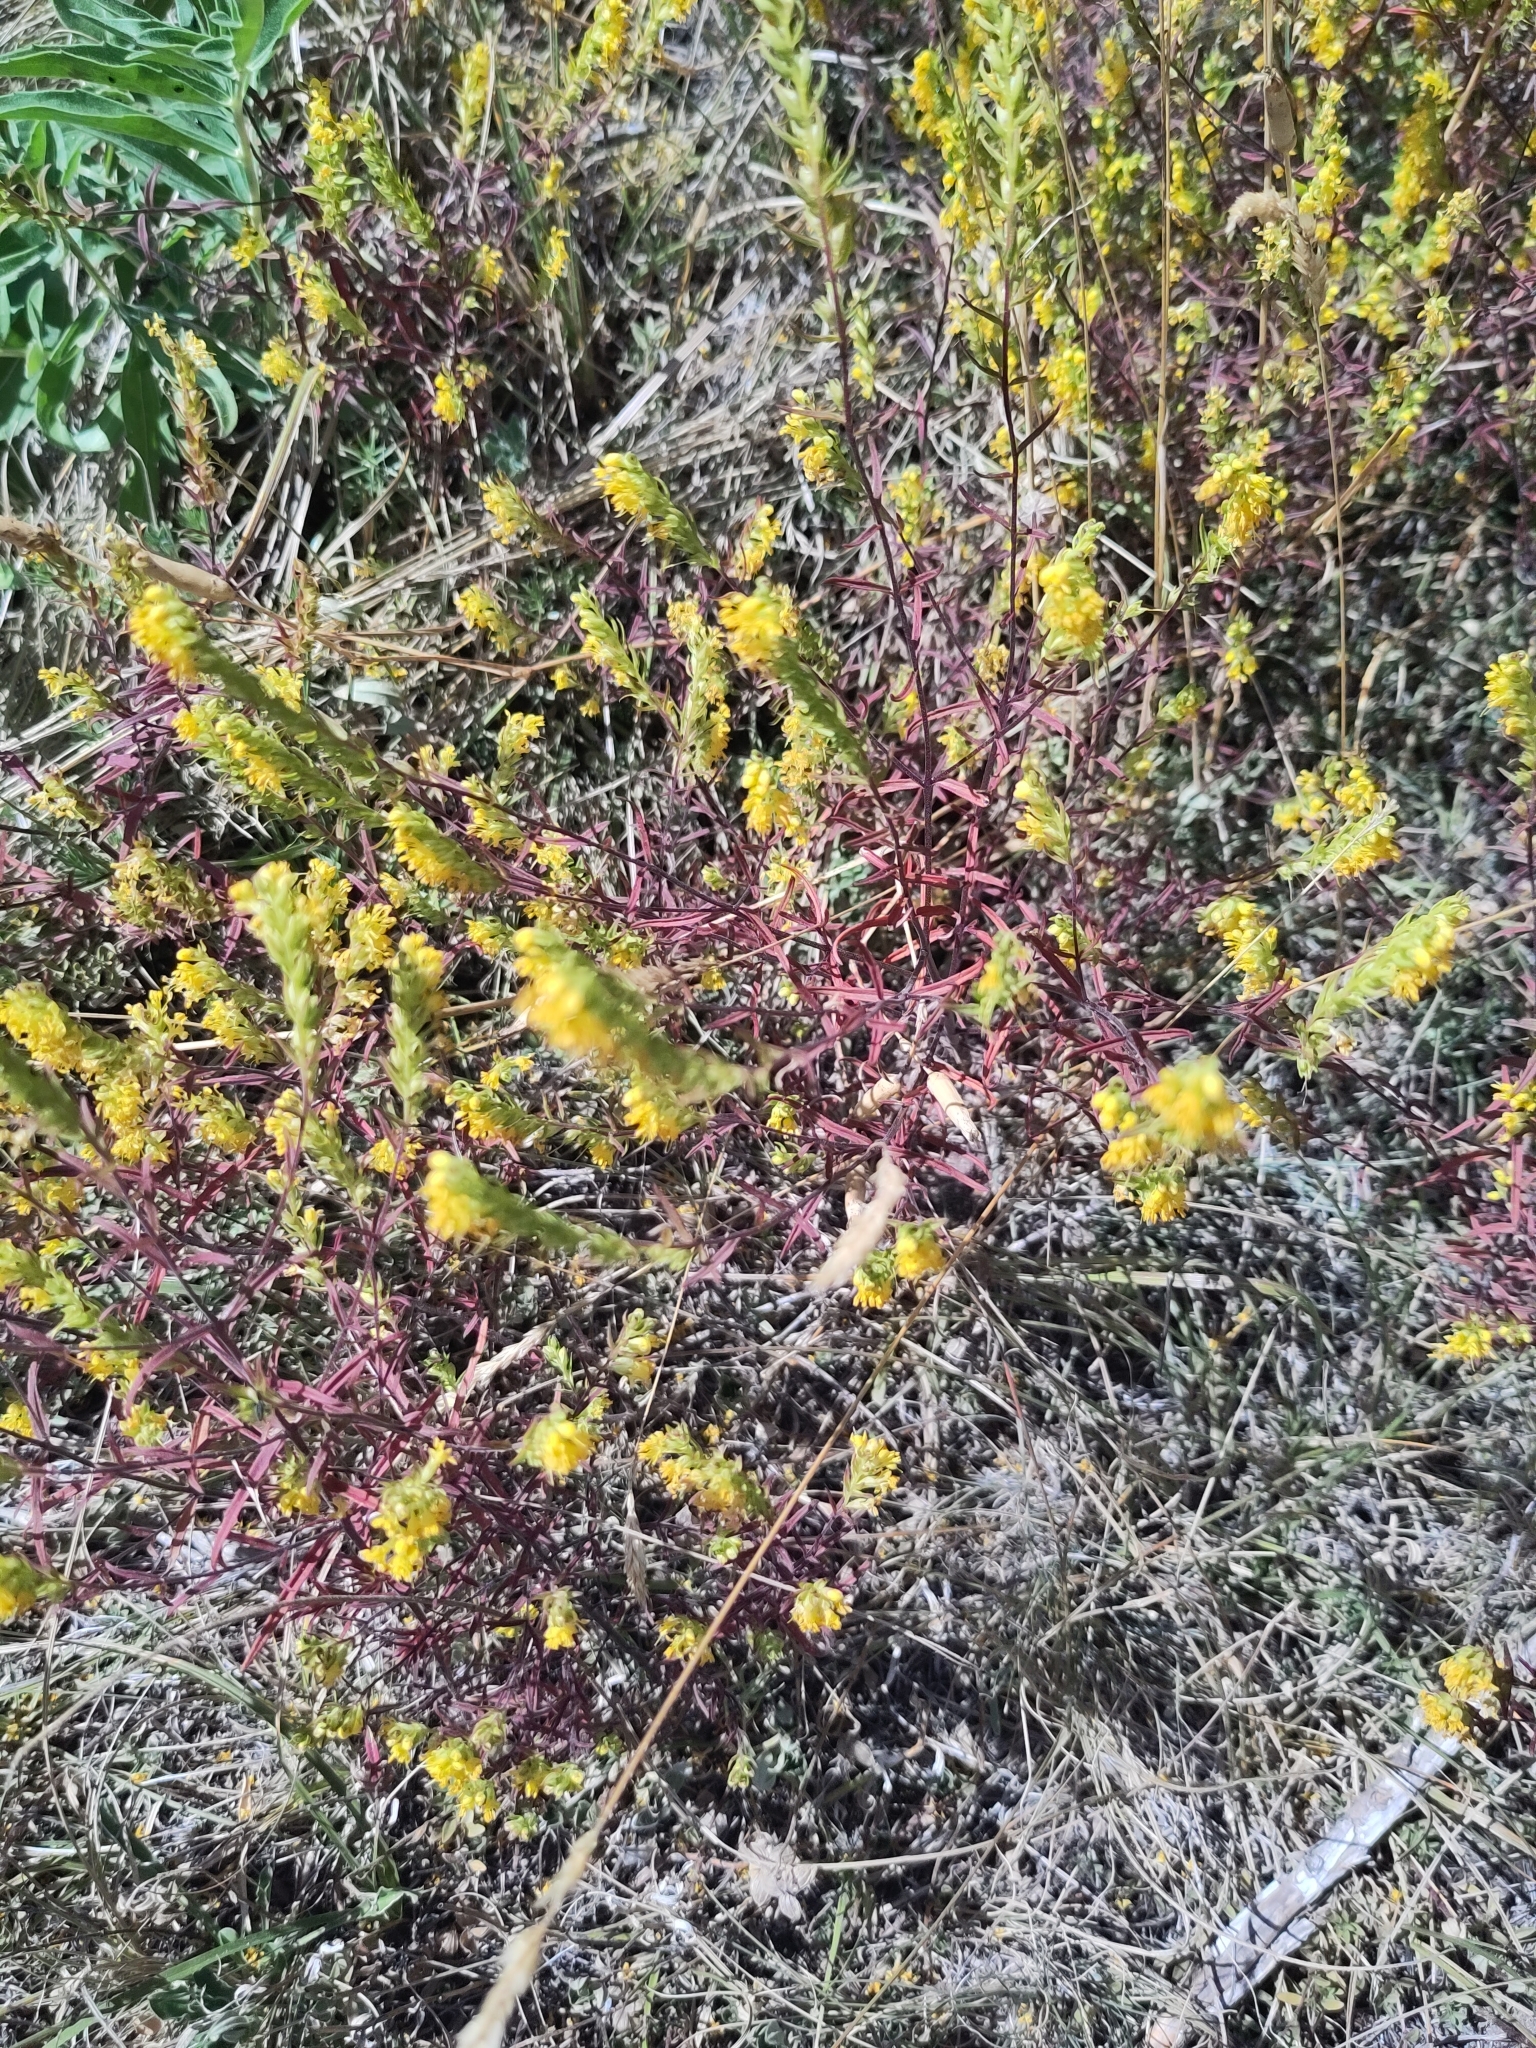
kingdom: Plantae
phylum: Tracheophyta
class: Magnoliopsida
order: Lamiales
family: Orobanchaceae
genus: Odontites
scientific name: Odontites luteus
